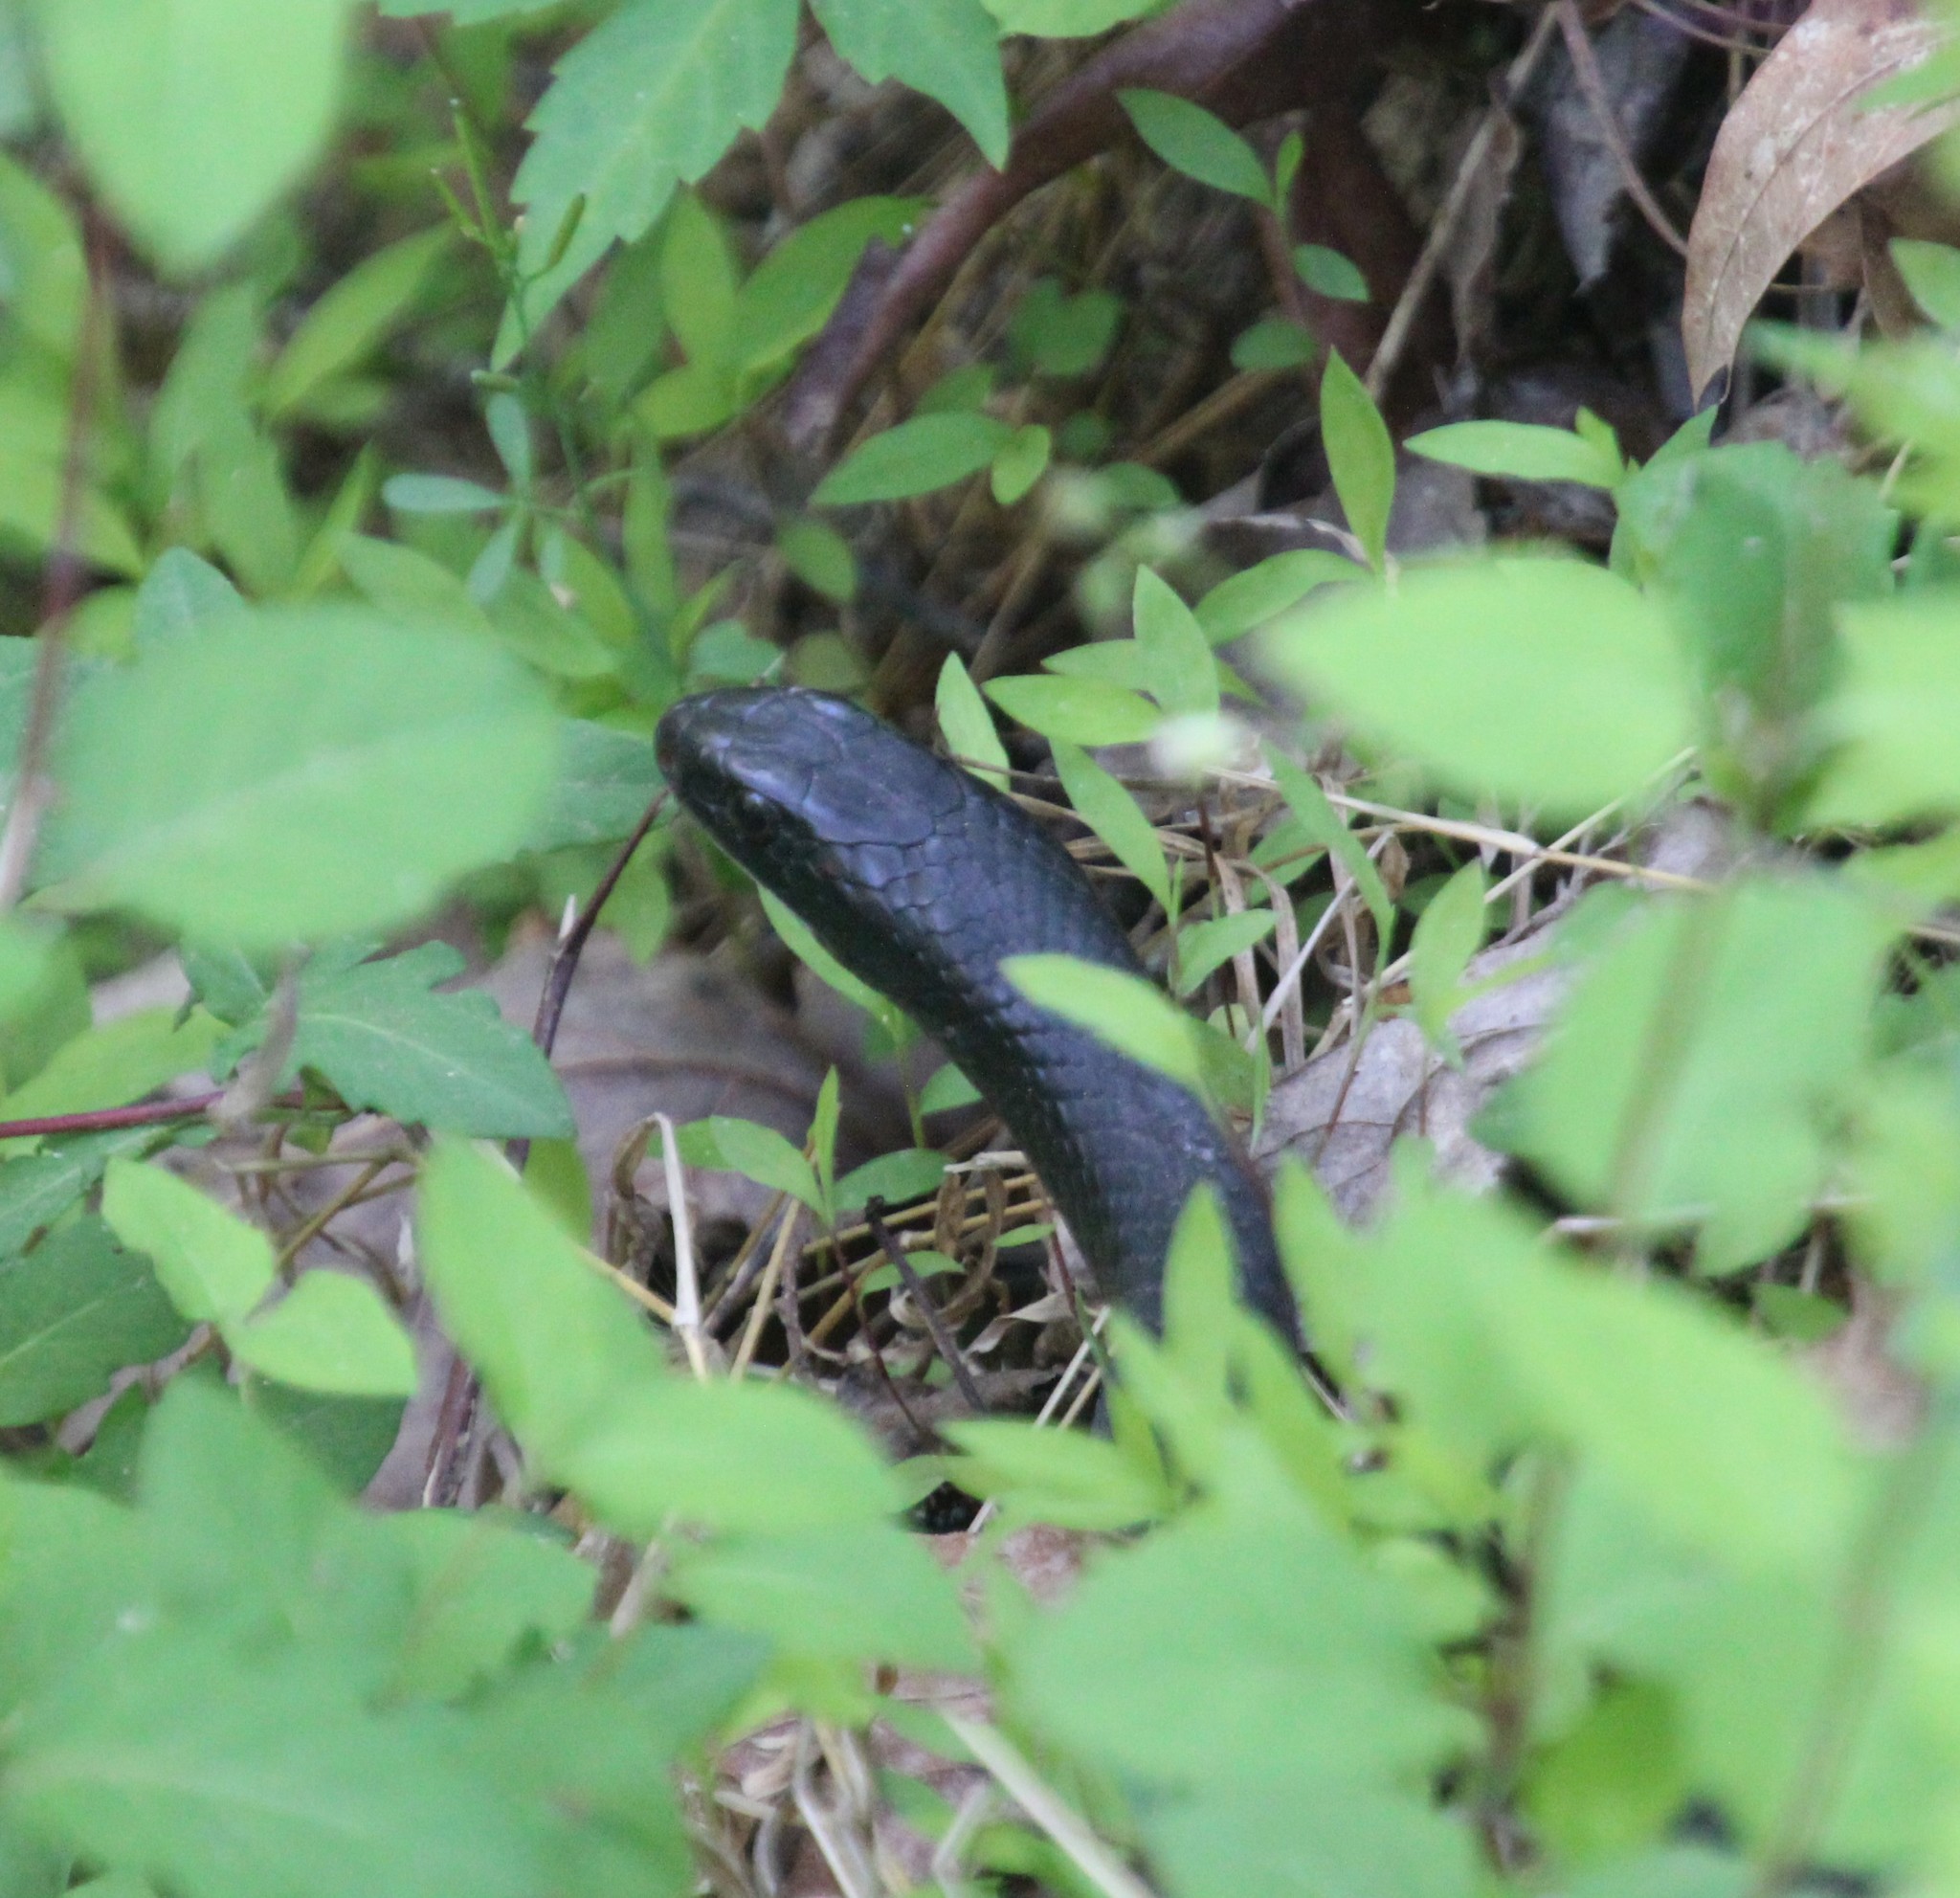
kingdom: Animalia
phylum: Chordata
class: Squamata
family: Colubridae
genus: Coluber
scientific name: Coluber constrictor
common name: Eastern racer
